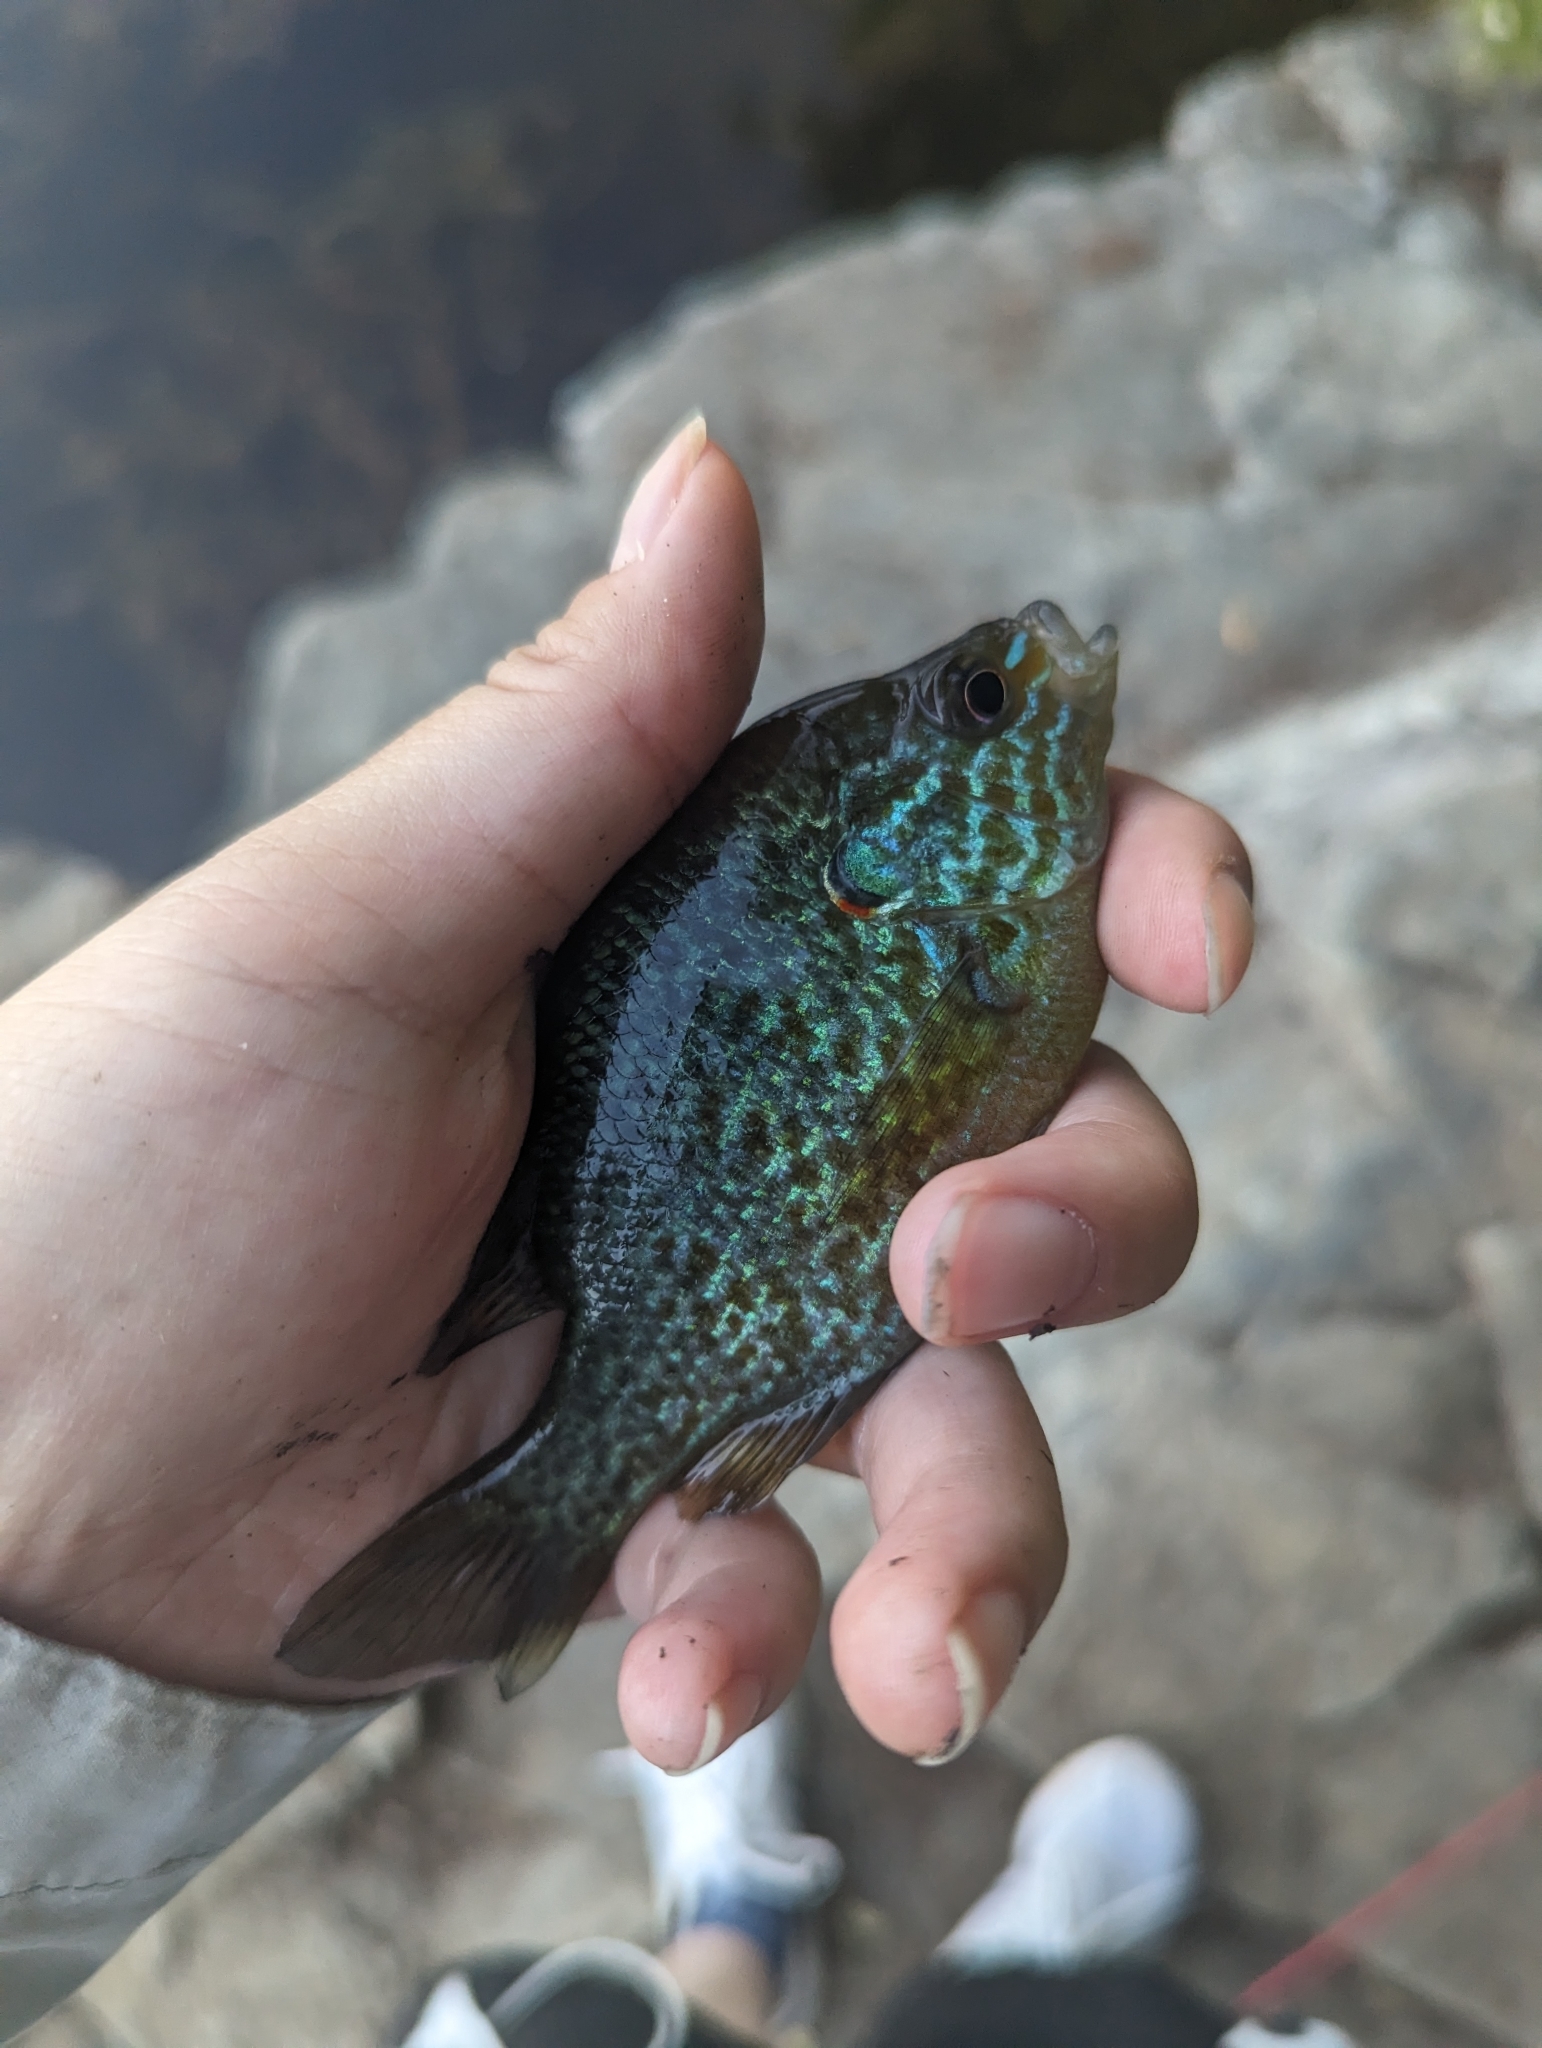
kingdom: Animalia
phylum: Chordata
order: Perciformes
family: Centrarchidae
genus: Lepomis
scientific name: Lepomis gibbosus
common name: Pumpkinseed
